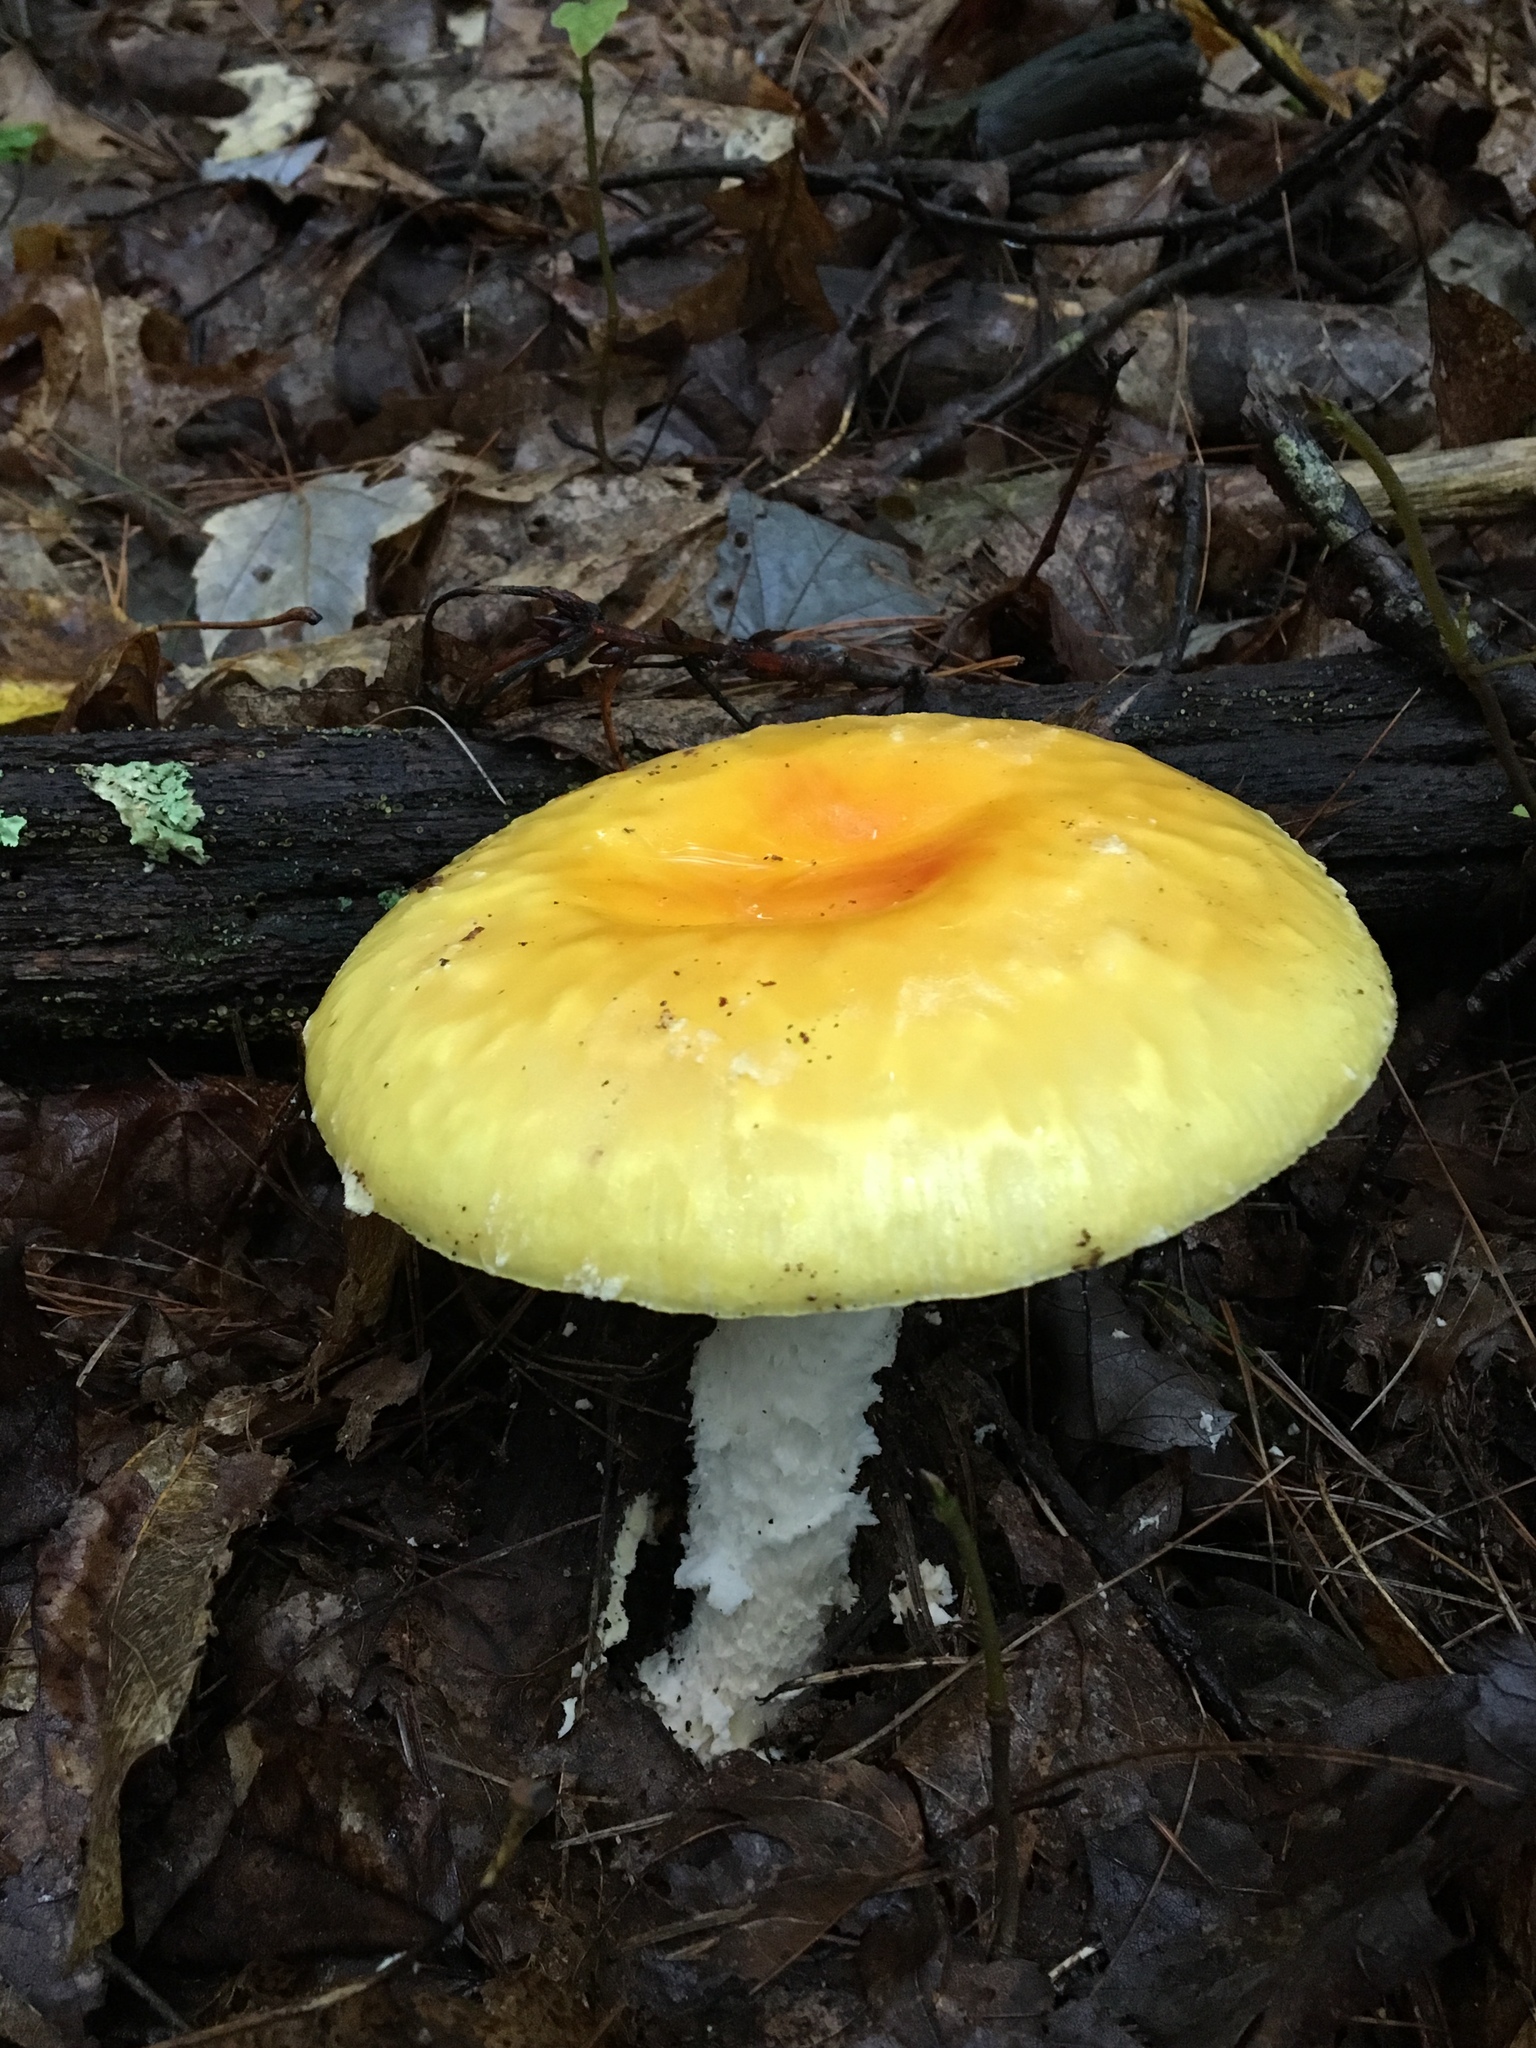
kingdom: Fungi
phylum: Basidiomycota
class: Agaricomycetes
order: Agaricales
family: Amanitaceae
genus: Amanita
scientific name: Amanita muscaria
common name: Fly agaric
